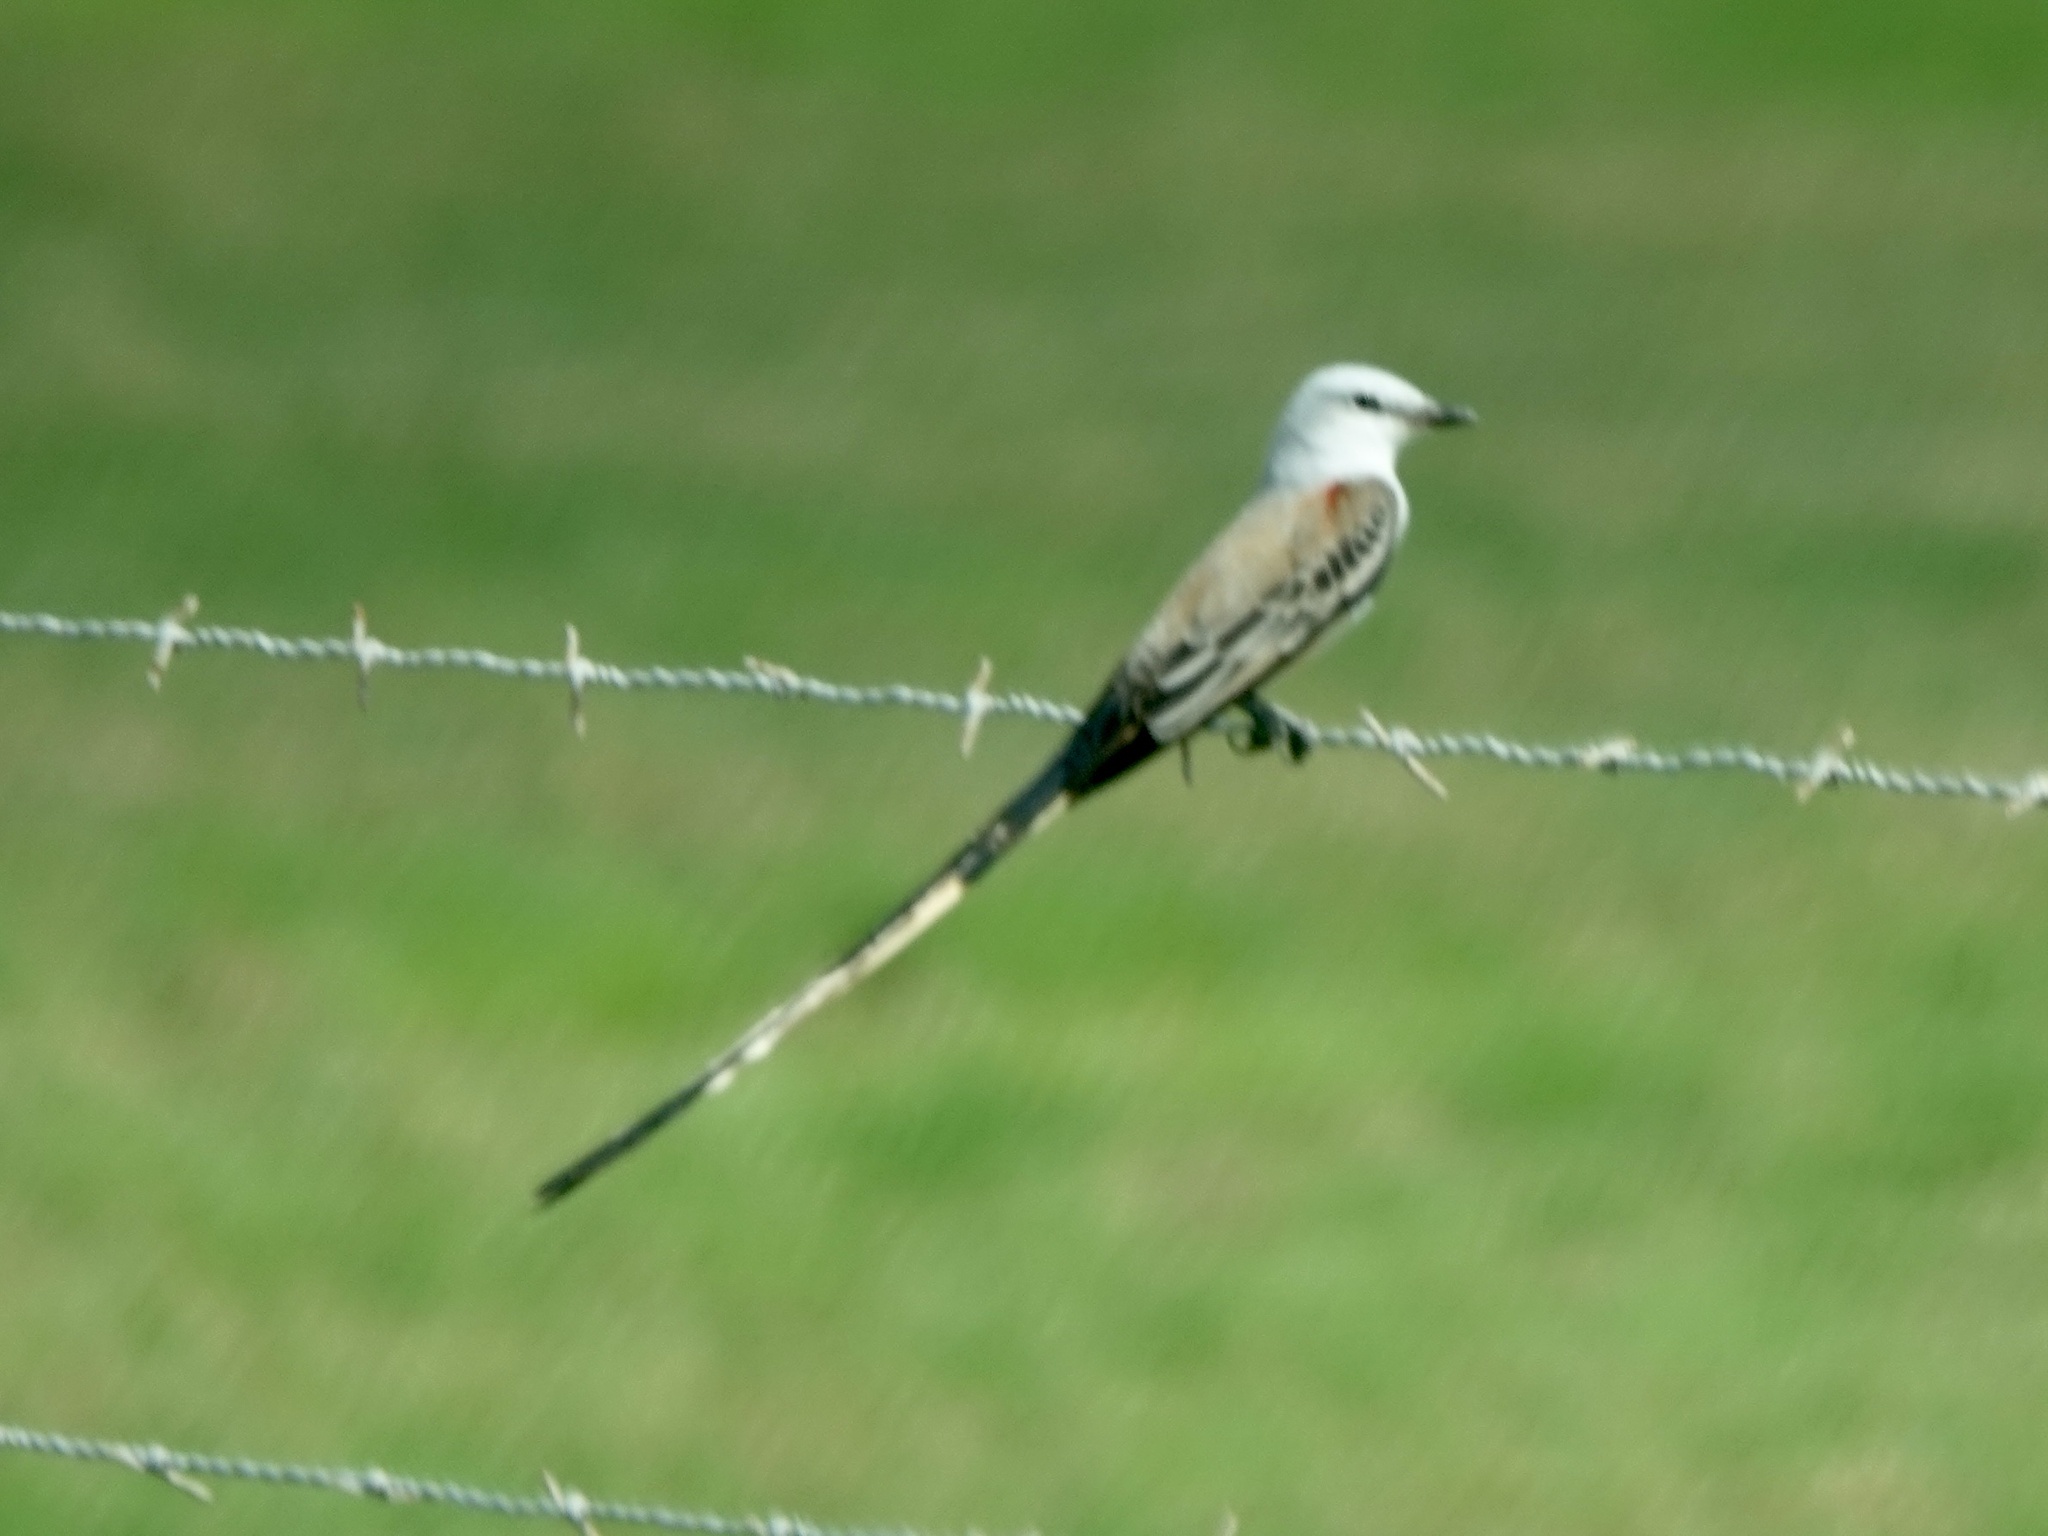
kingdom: Animalia
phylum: Chordata
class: Aves
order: Passeriformes
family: Tyrannidae
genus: Tyrannus
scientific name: Tyrannus forficatus
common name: Scissor-tailed flycatcher
